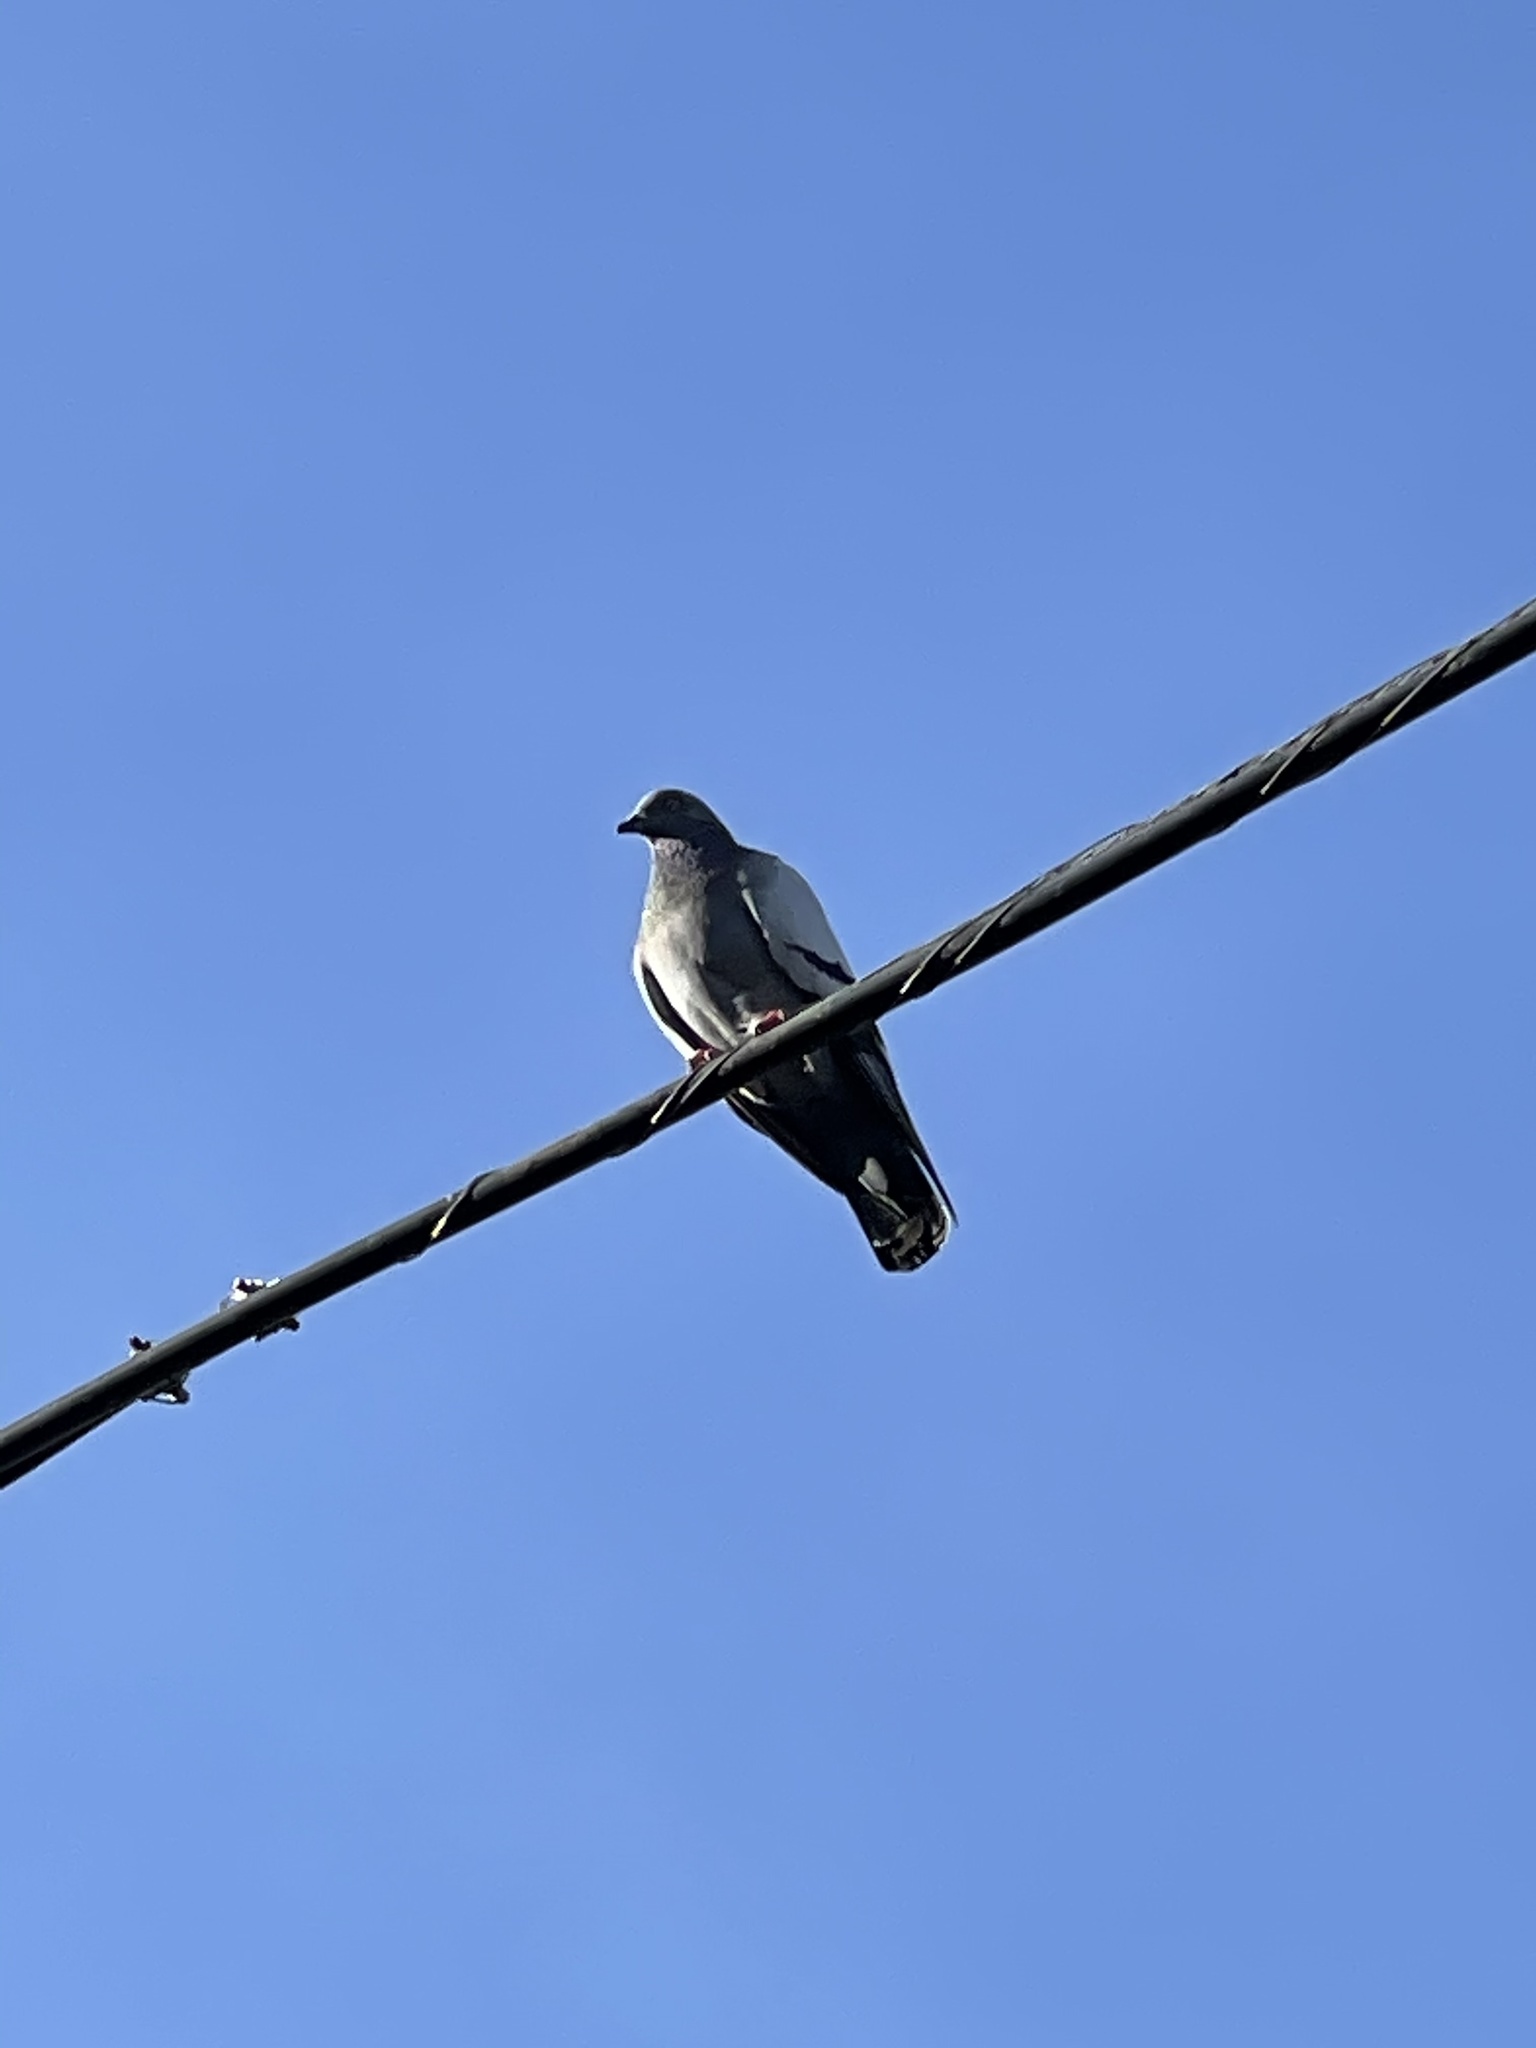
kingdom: Animalia
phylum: Chordata
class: Aves
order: Columbiformes
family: Columbidae
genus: Columba
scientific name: Columba livia
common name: Rock pigeon
